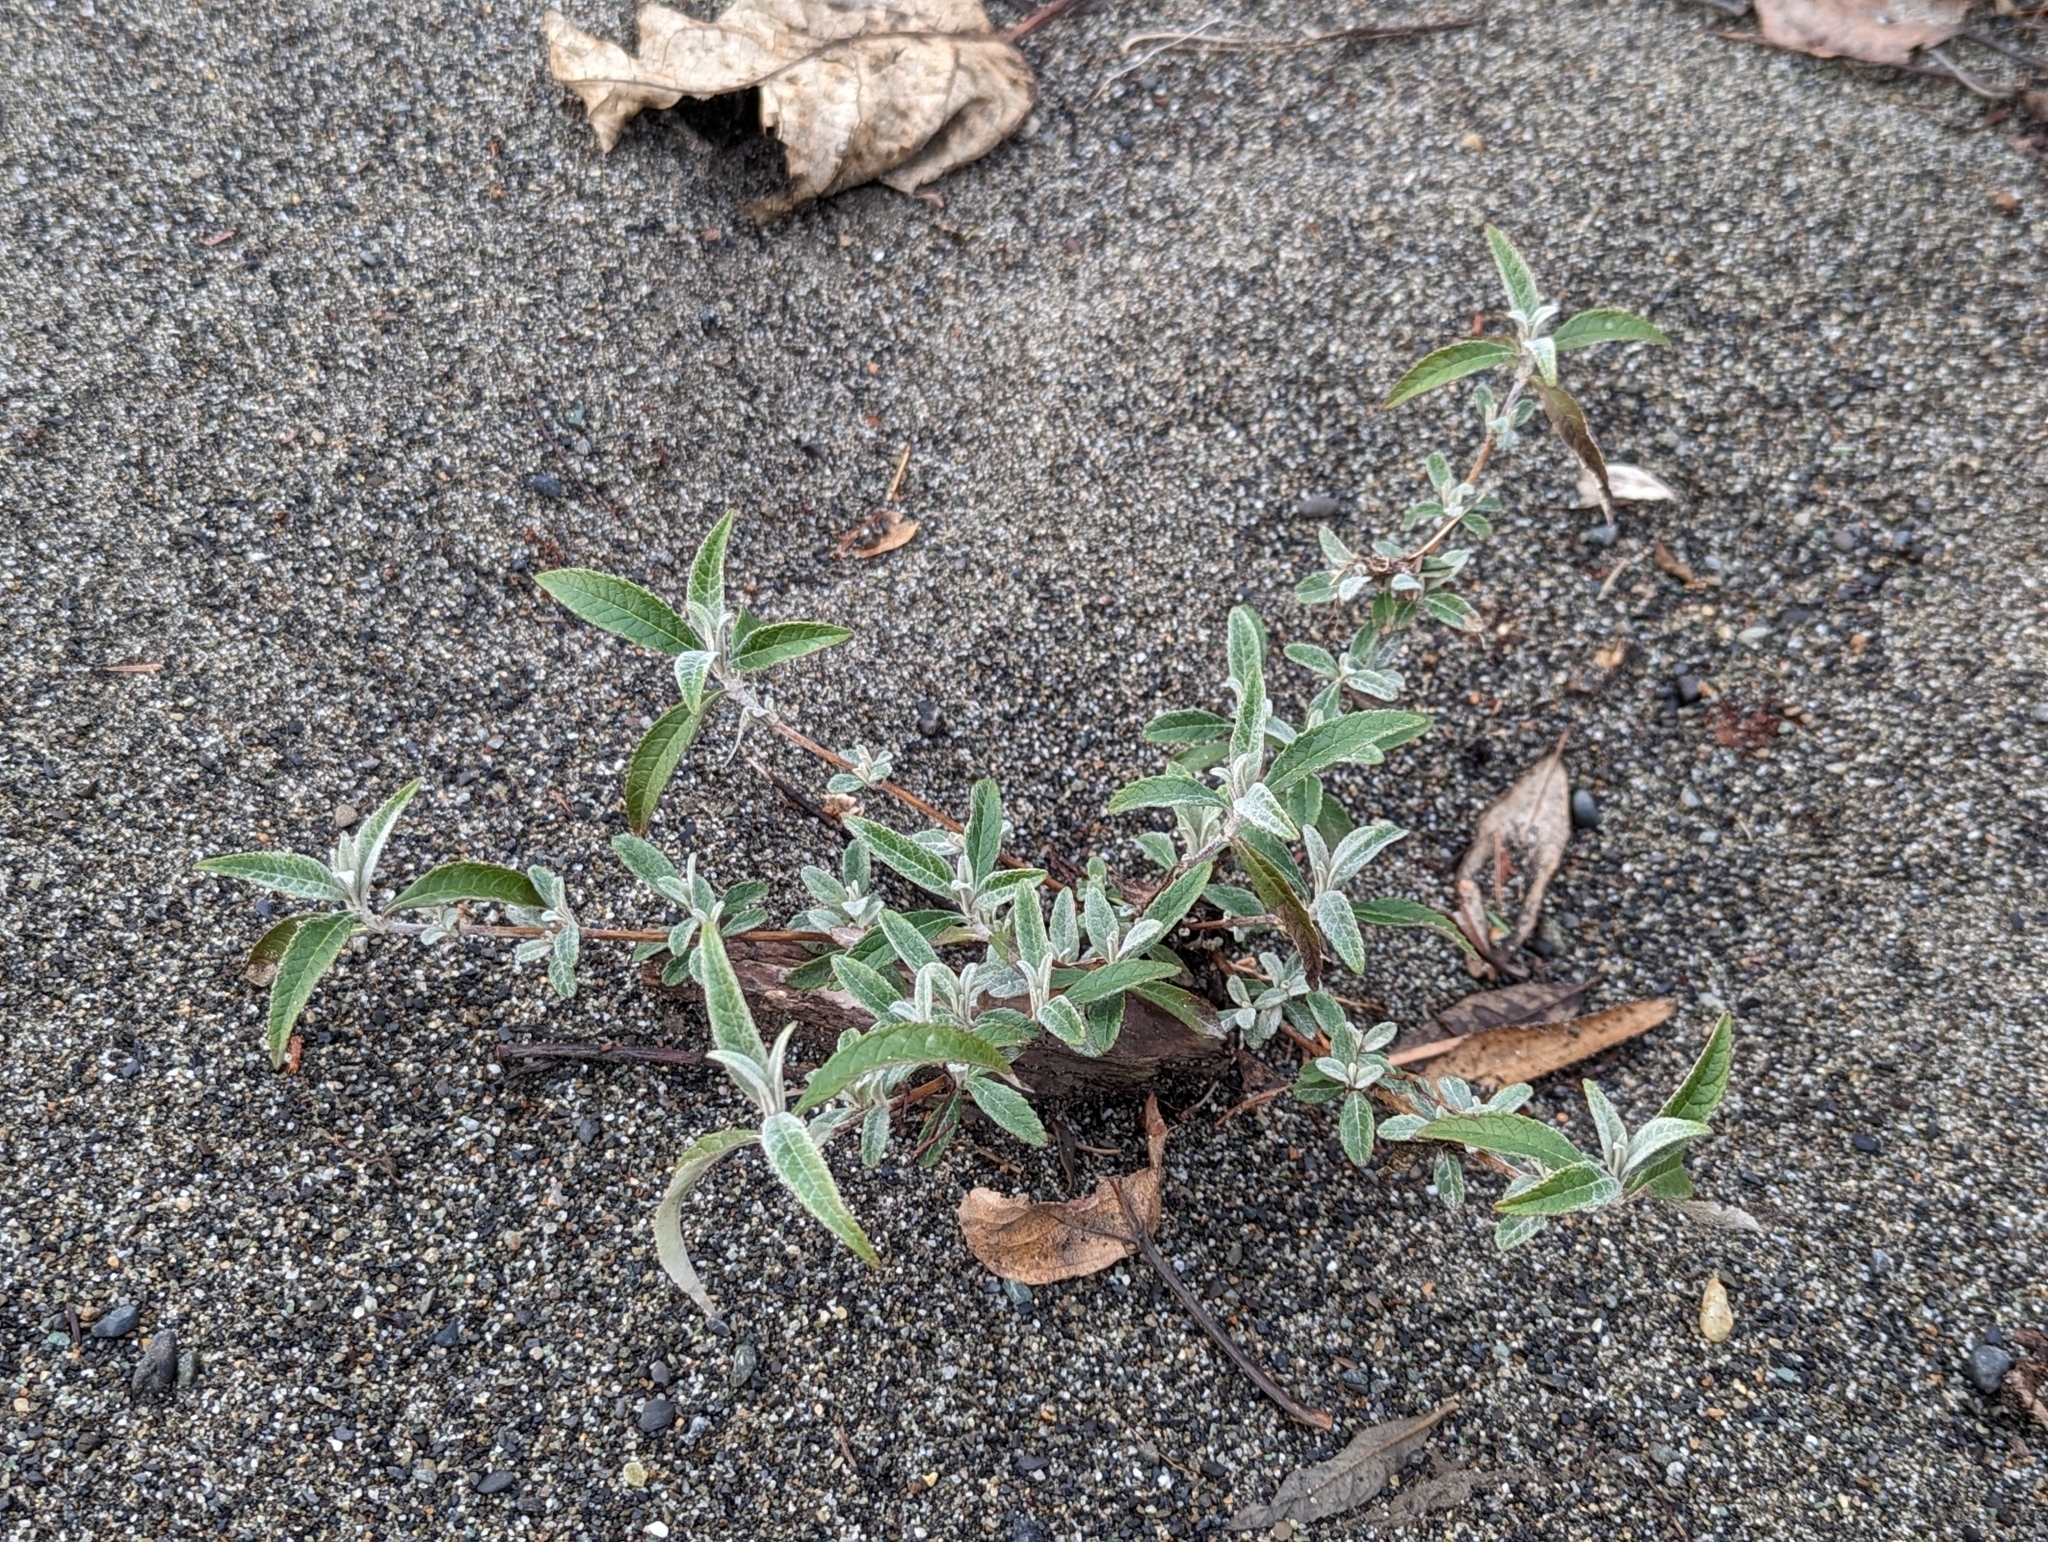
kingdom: Plantae
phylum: Tracheophyta
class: Magnoliopsida
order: Lamiales
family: Scrophulariaceae
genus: Buddleja
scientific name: Buddleja davidii
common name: Butterfly-bush
